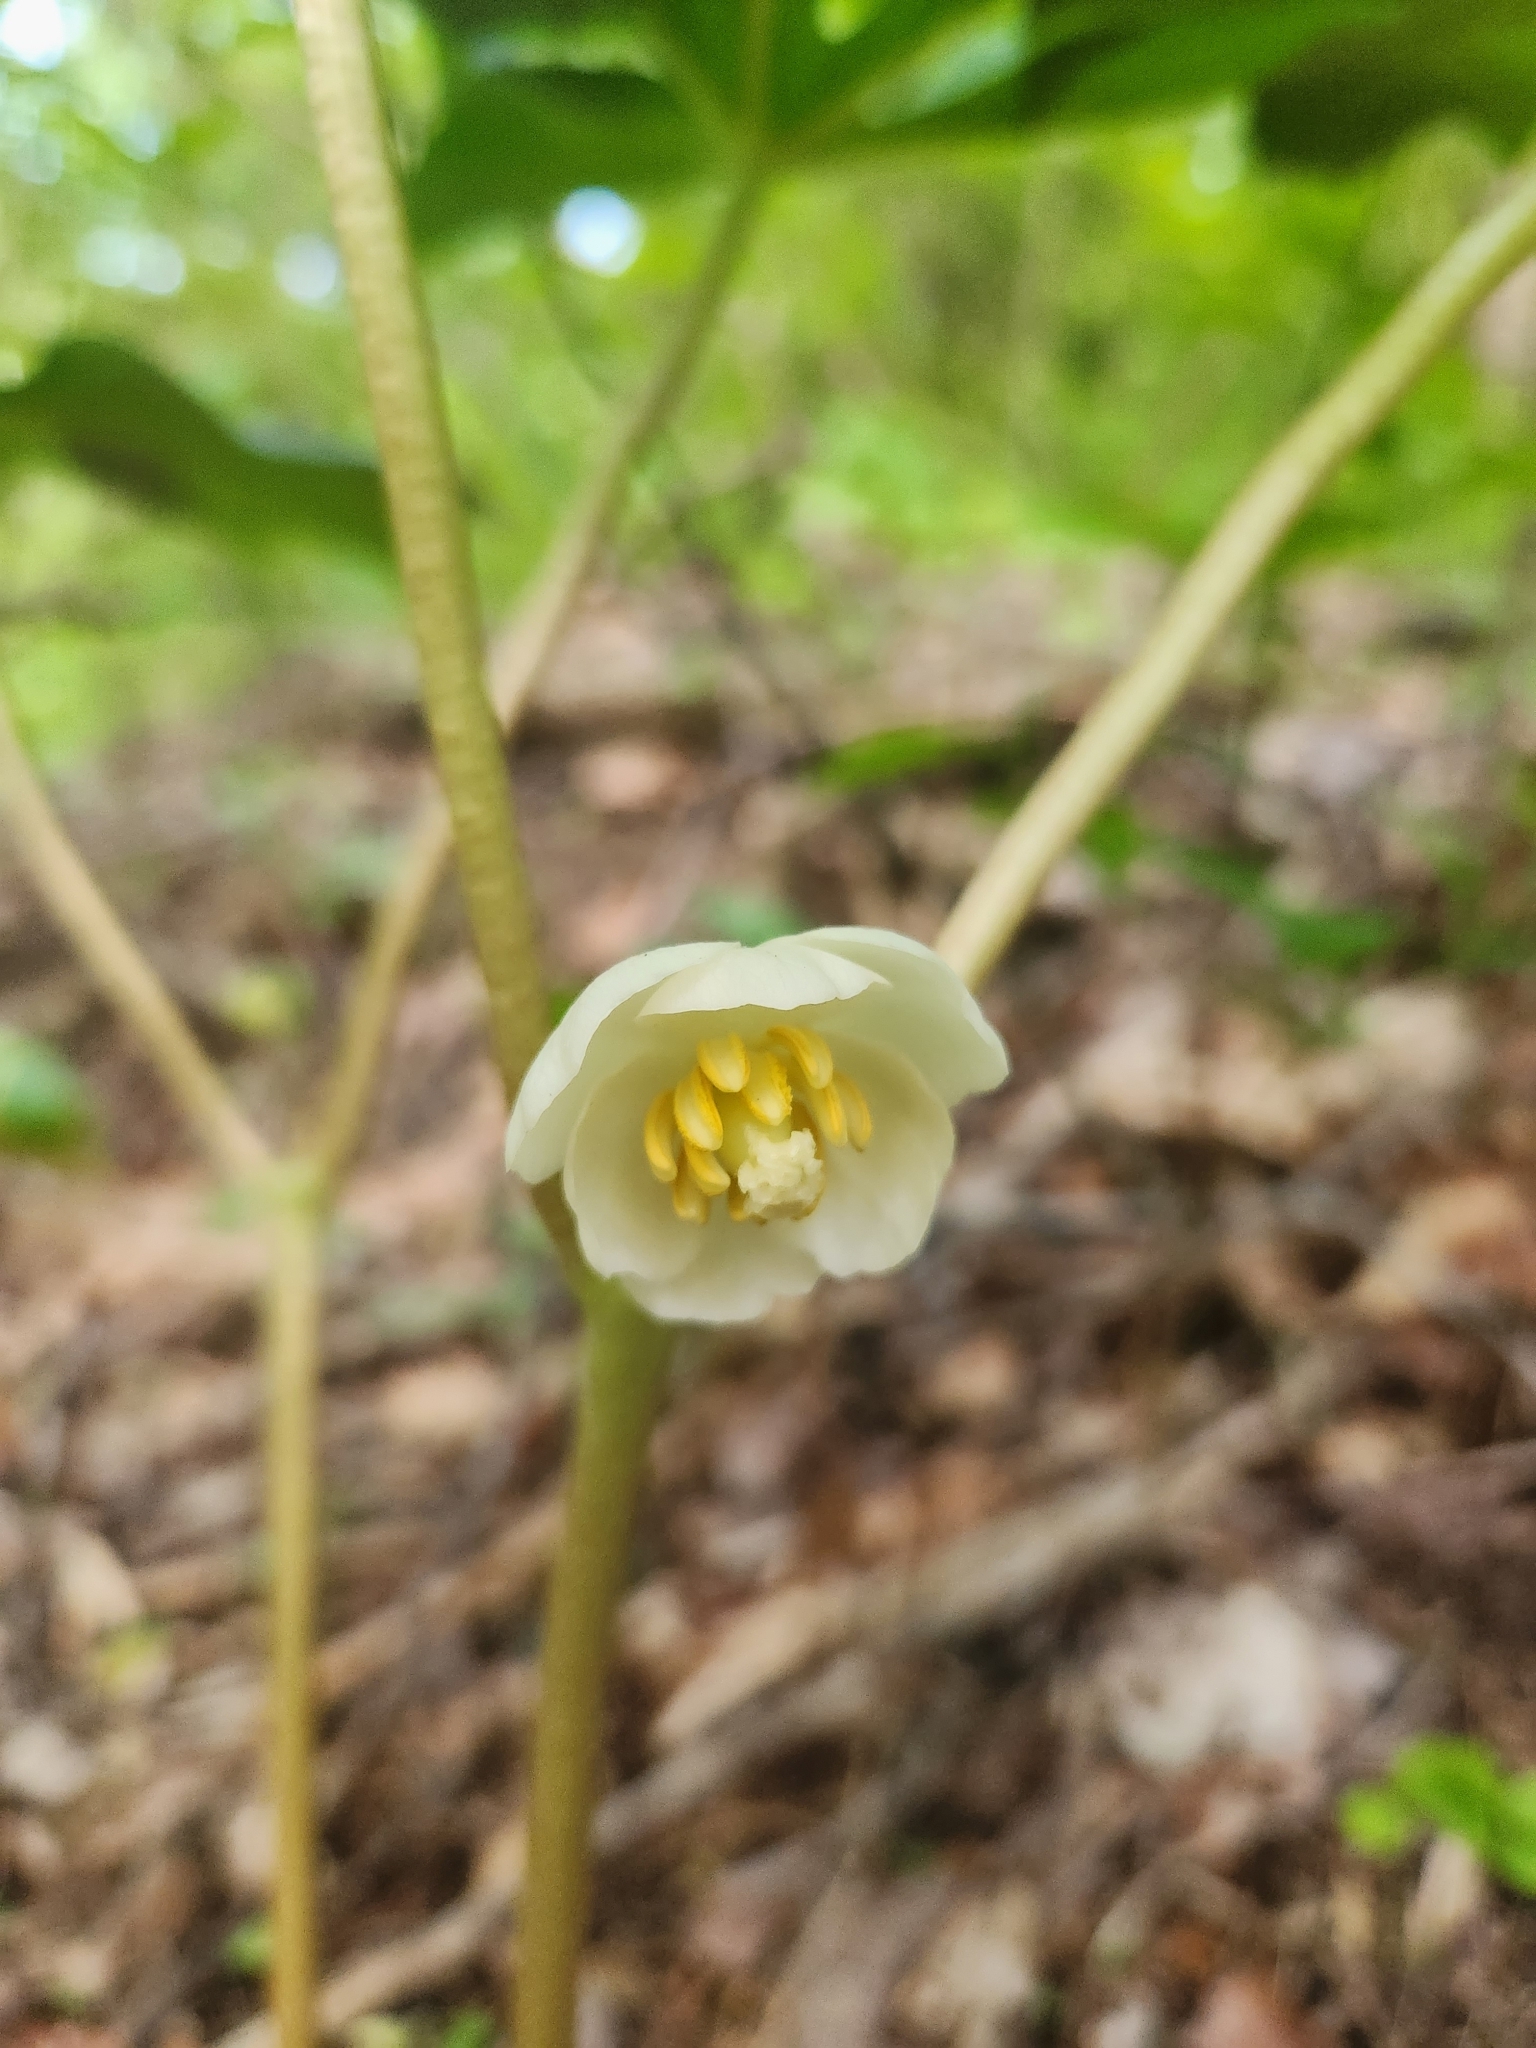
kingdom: Plantae
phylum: Tracheophyta
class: Magnoliopsida
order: Ranunculales
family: Berberidaceae
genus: Podophyllum
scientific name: Podophyllum peltatum
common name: Wild mandrake
